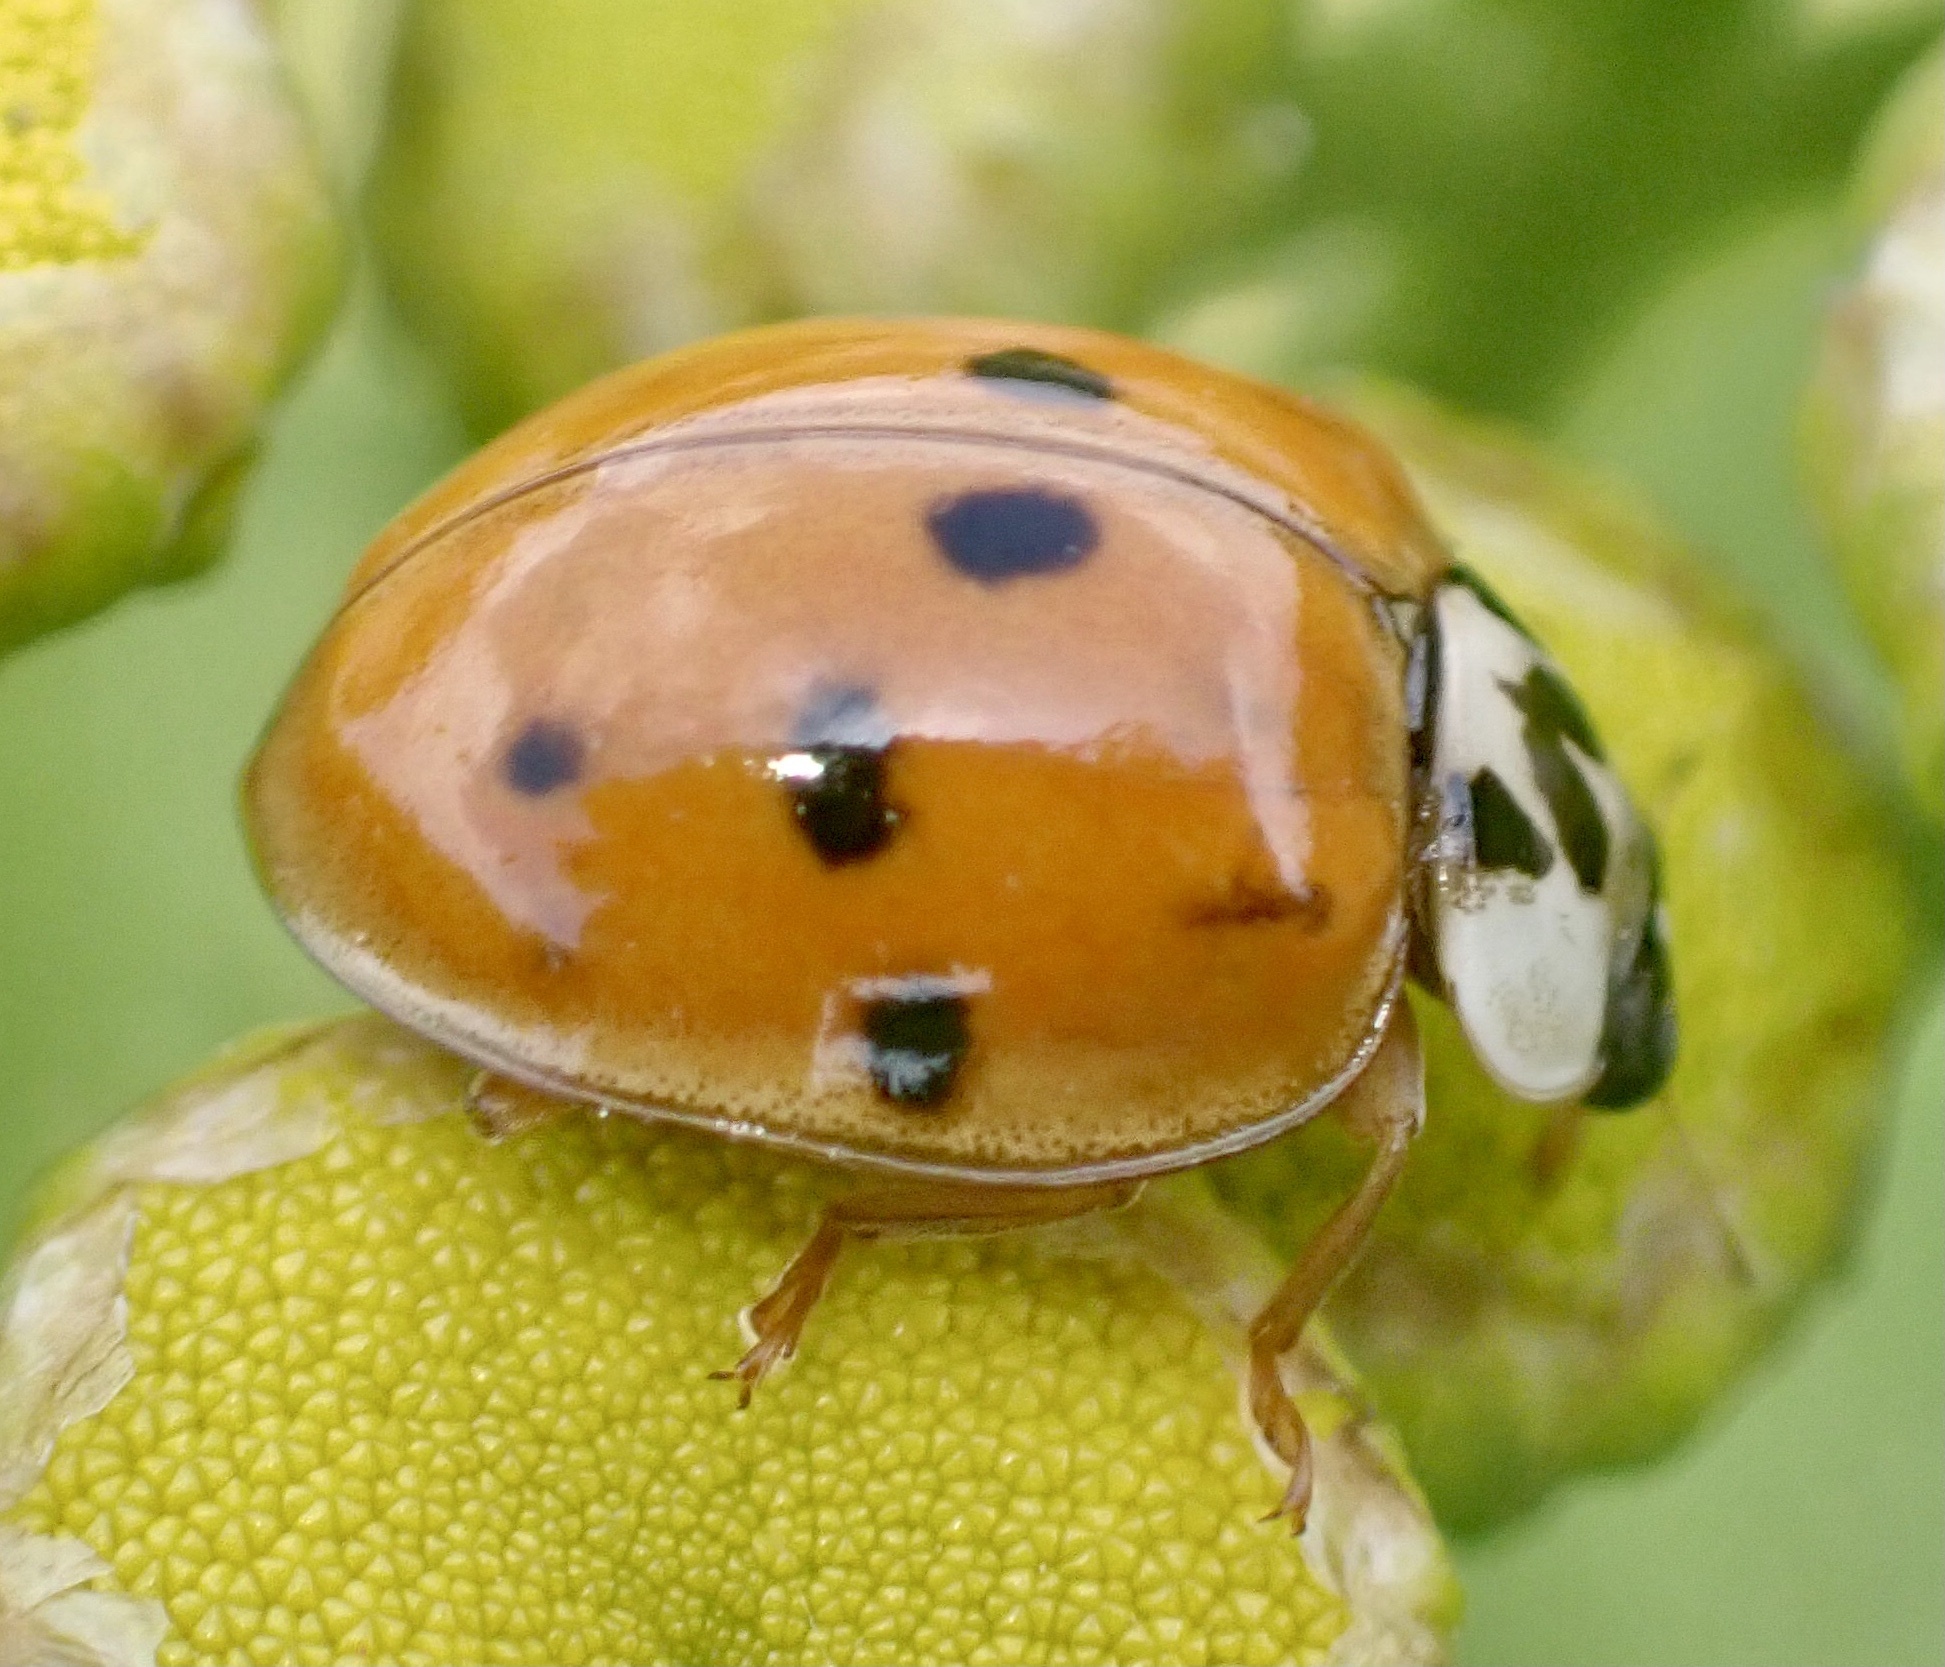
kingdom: Animalia
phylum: Arthropoda
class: Insecta
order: Coleoptera
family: Coccinellidae
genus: Harmonia
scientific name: Harmonia axyridis
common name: Harlequin ladybird
